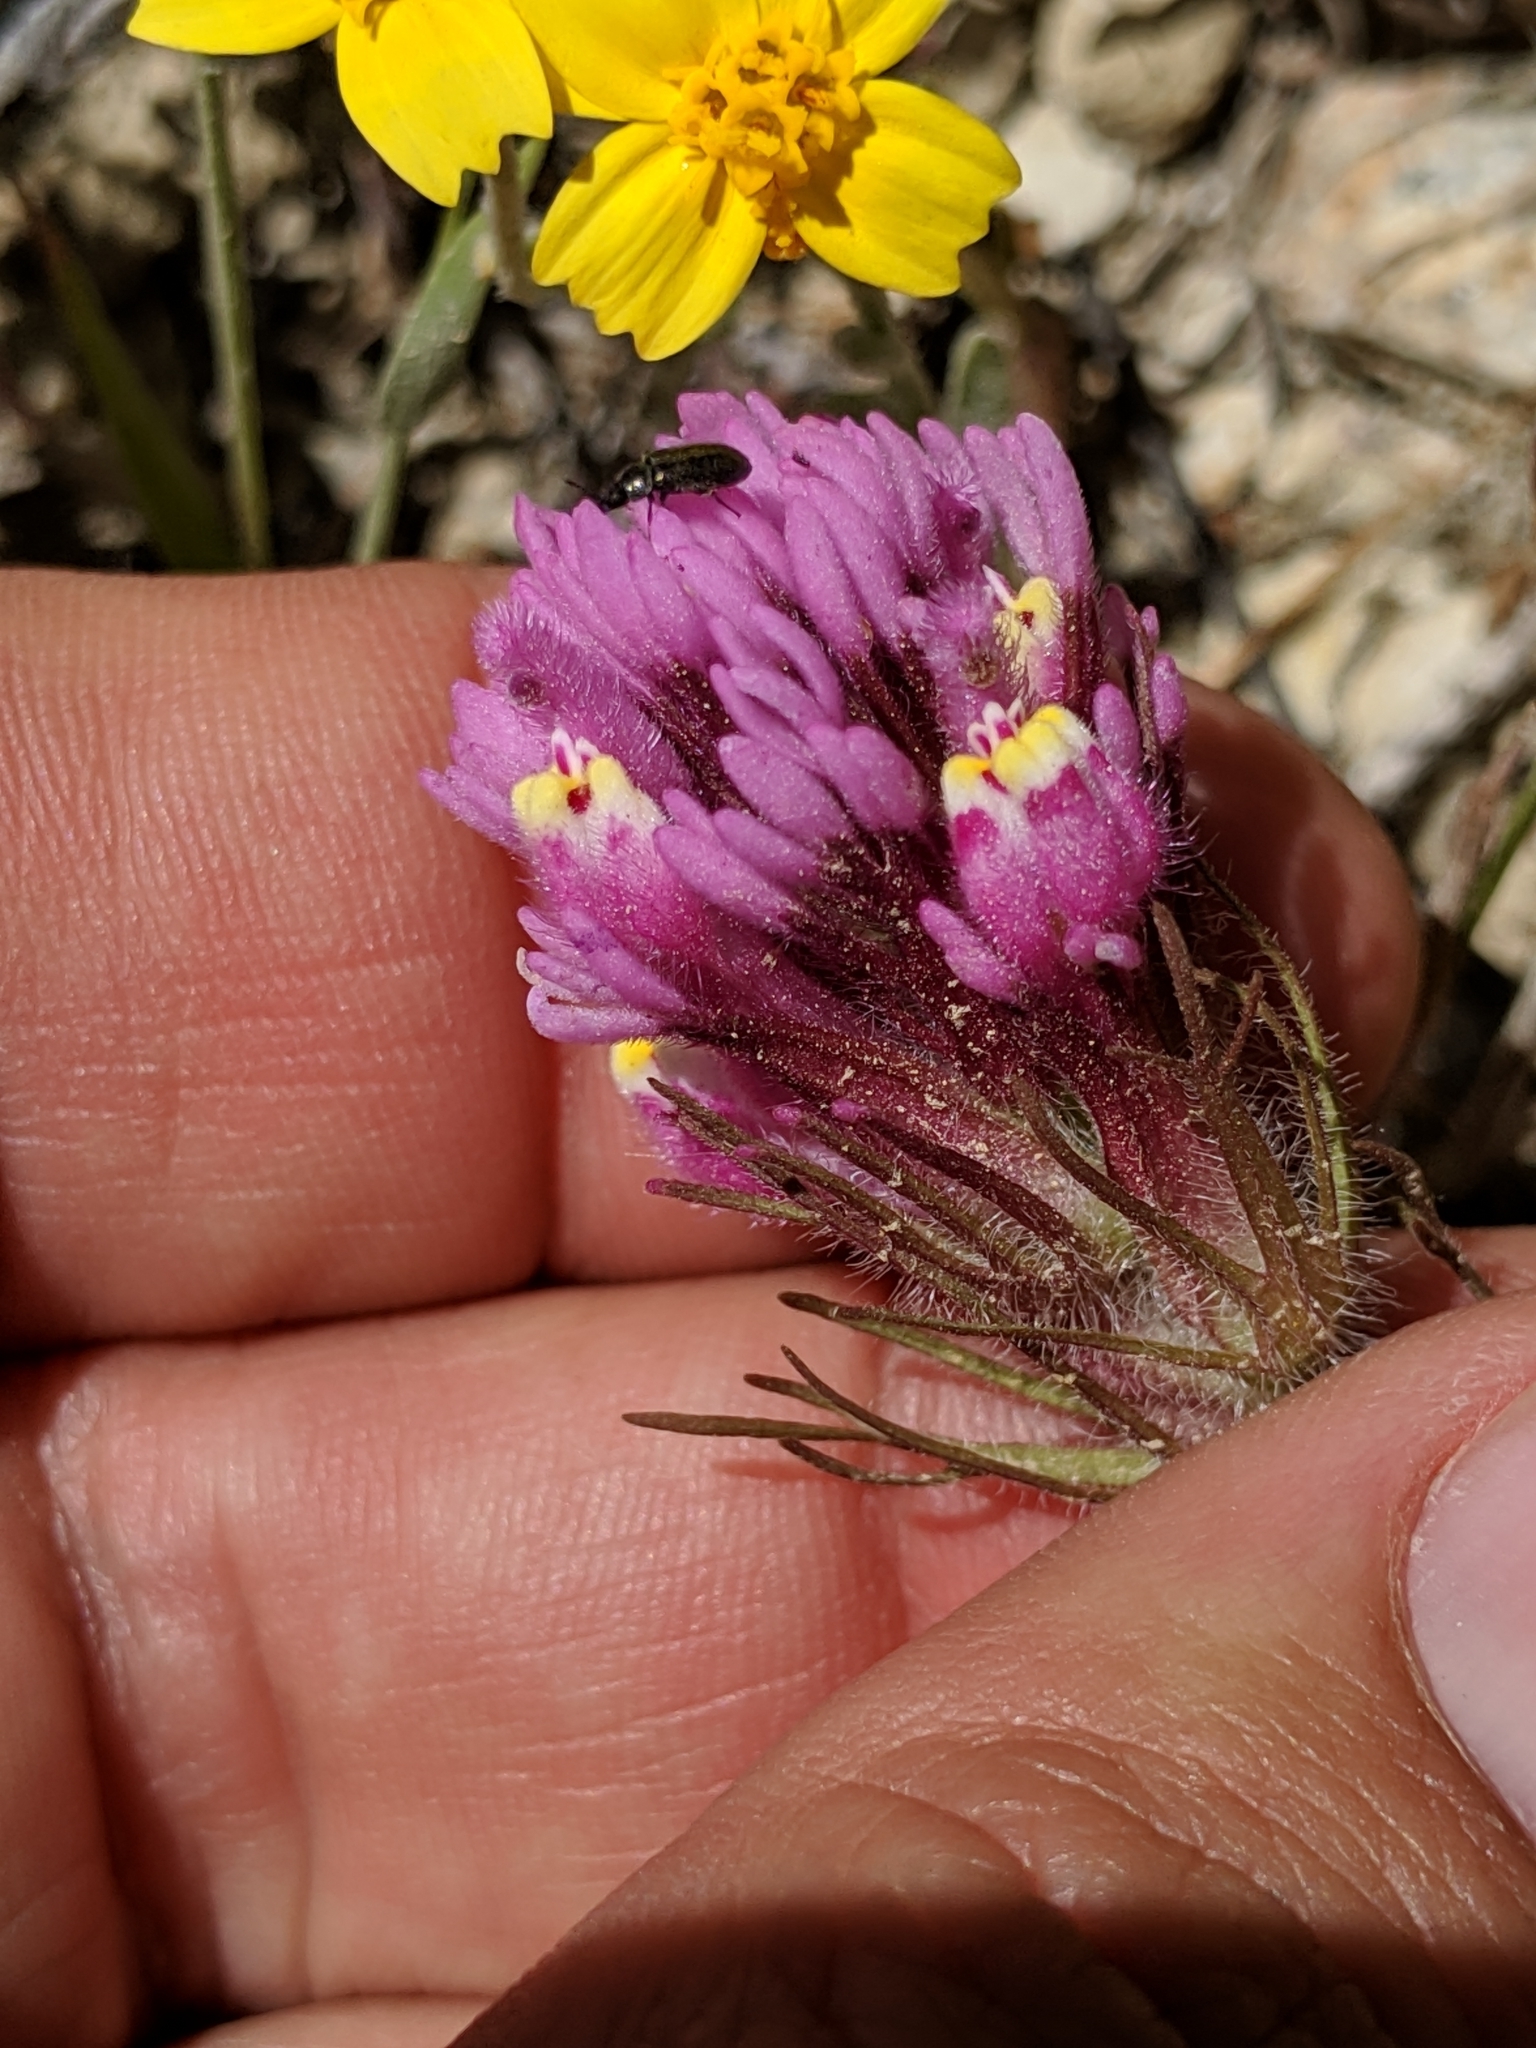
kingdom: Plantae
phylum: Tracheophyta
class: Magnoliopsida
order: Lamiales
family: Orobanchaceae
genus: Castilleja
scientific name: Castilleja exserta
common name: Purple owl-clover
